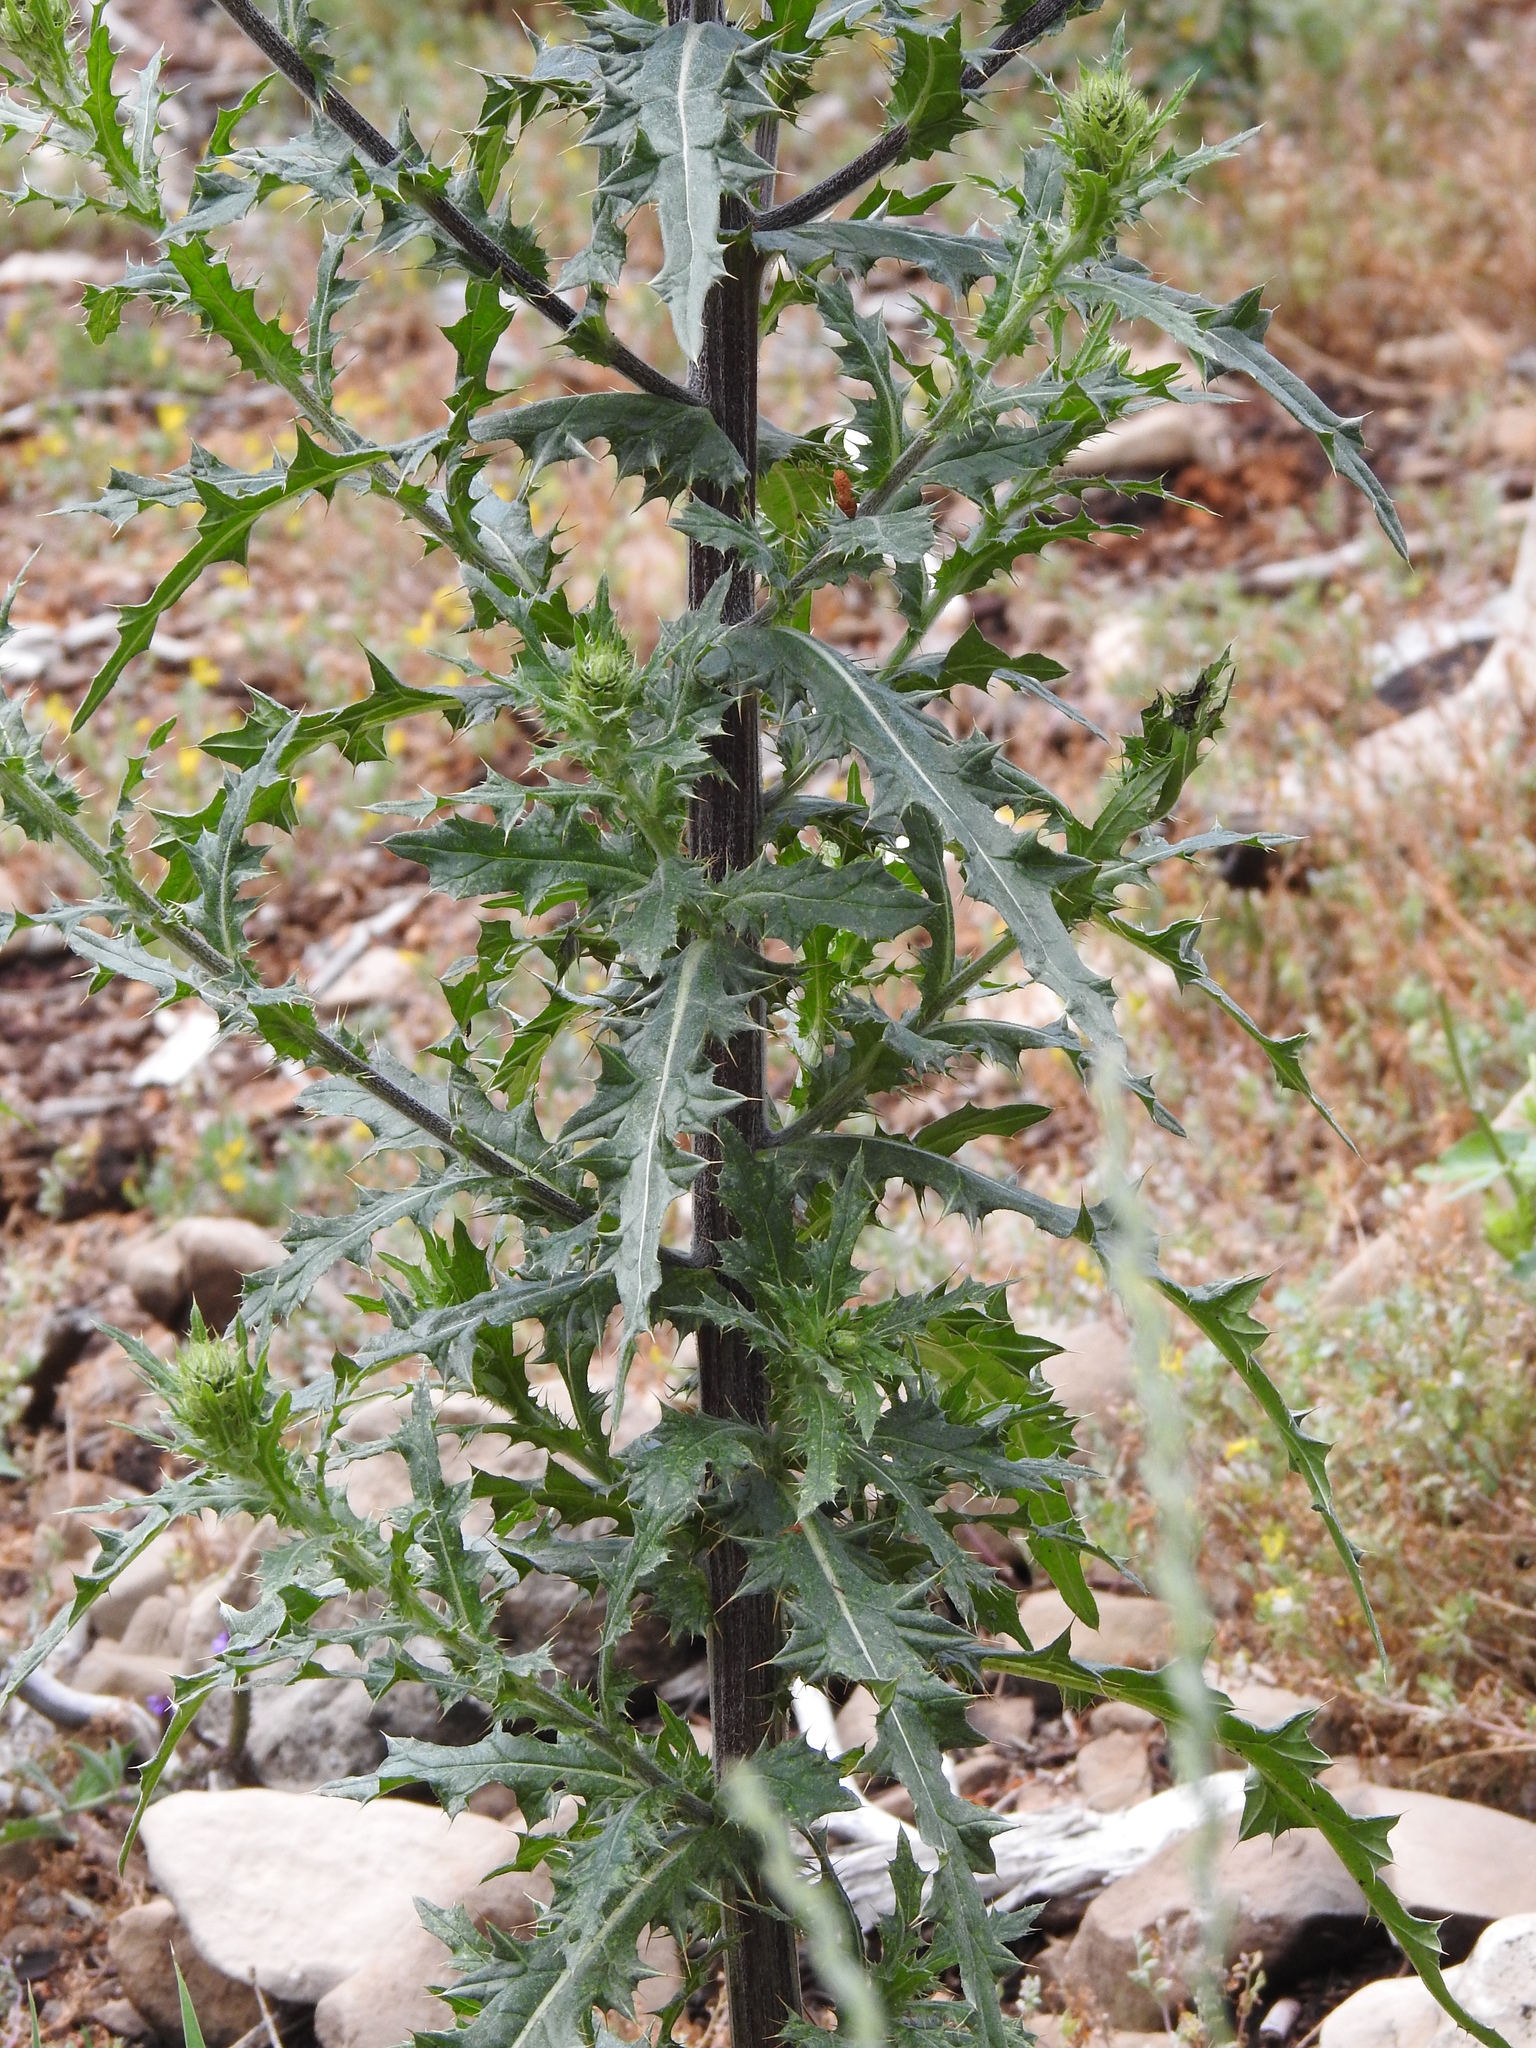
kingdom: Plantae
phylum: Tracheophyta
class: Magnoliopsida
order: Asterales
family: Asteraceae
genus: Cirsium
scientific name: Cirsium parryi
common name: Parry's thistle
